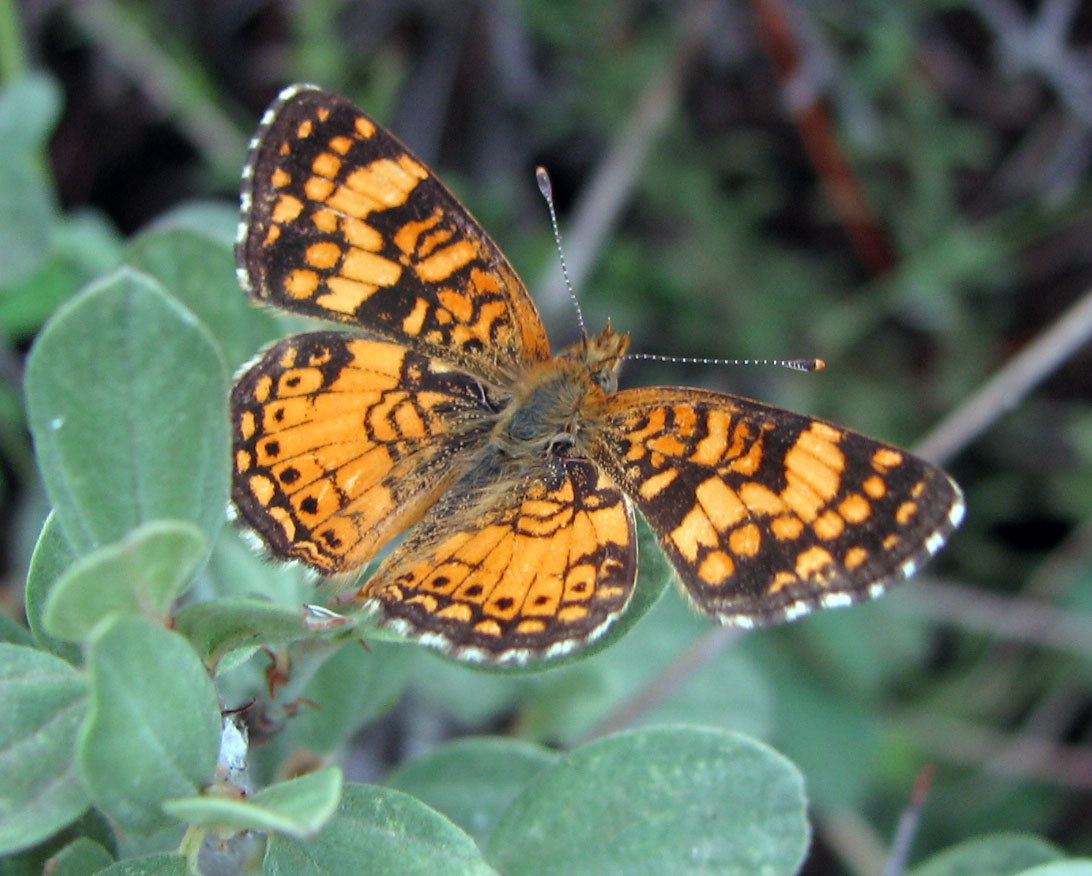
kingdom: Animalia
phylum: Arthropoda
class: Insecta
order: Lepidoptera
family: Nymphalidae
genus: Eresia
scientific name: Eresia aveyrona
